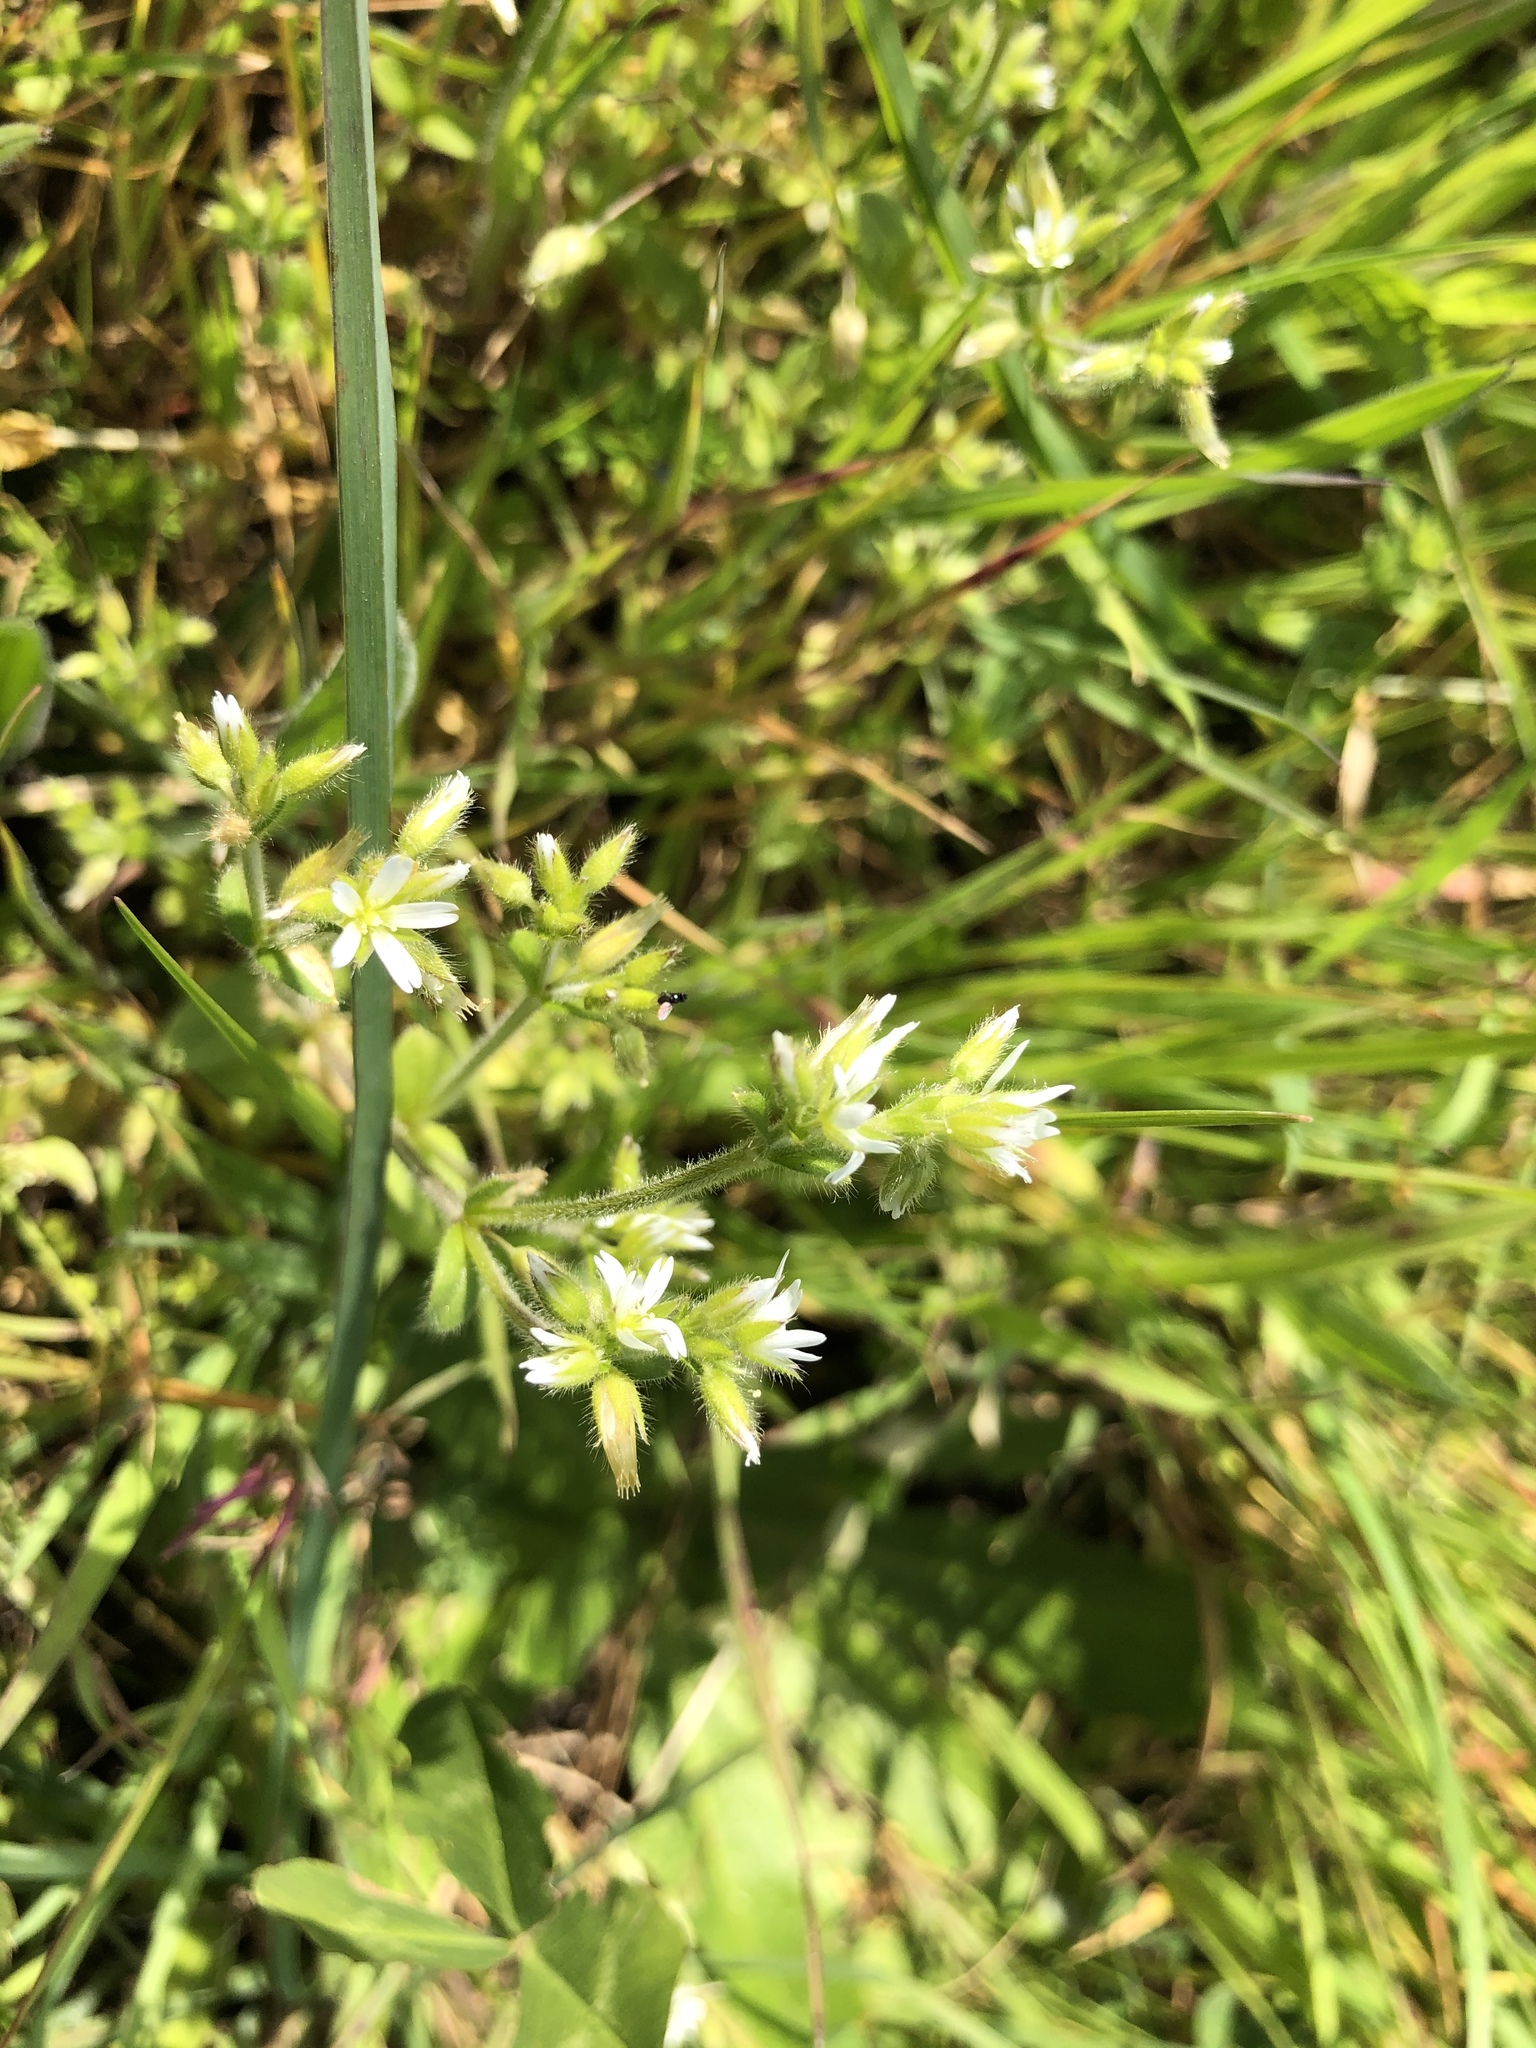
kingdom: Plantae
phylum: Tracheophyta
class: Magnoliopsida
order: Caryophyllales
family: Caryophyllaceae
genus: Cerastium
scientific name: Cerastium glomeratum
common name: Sticky chickweed
